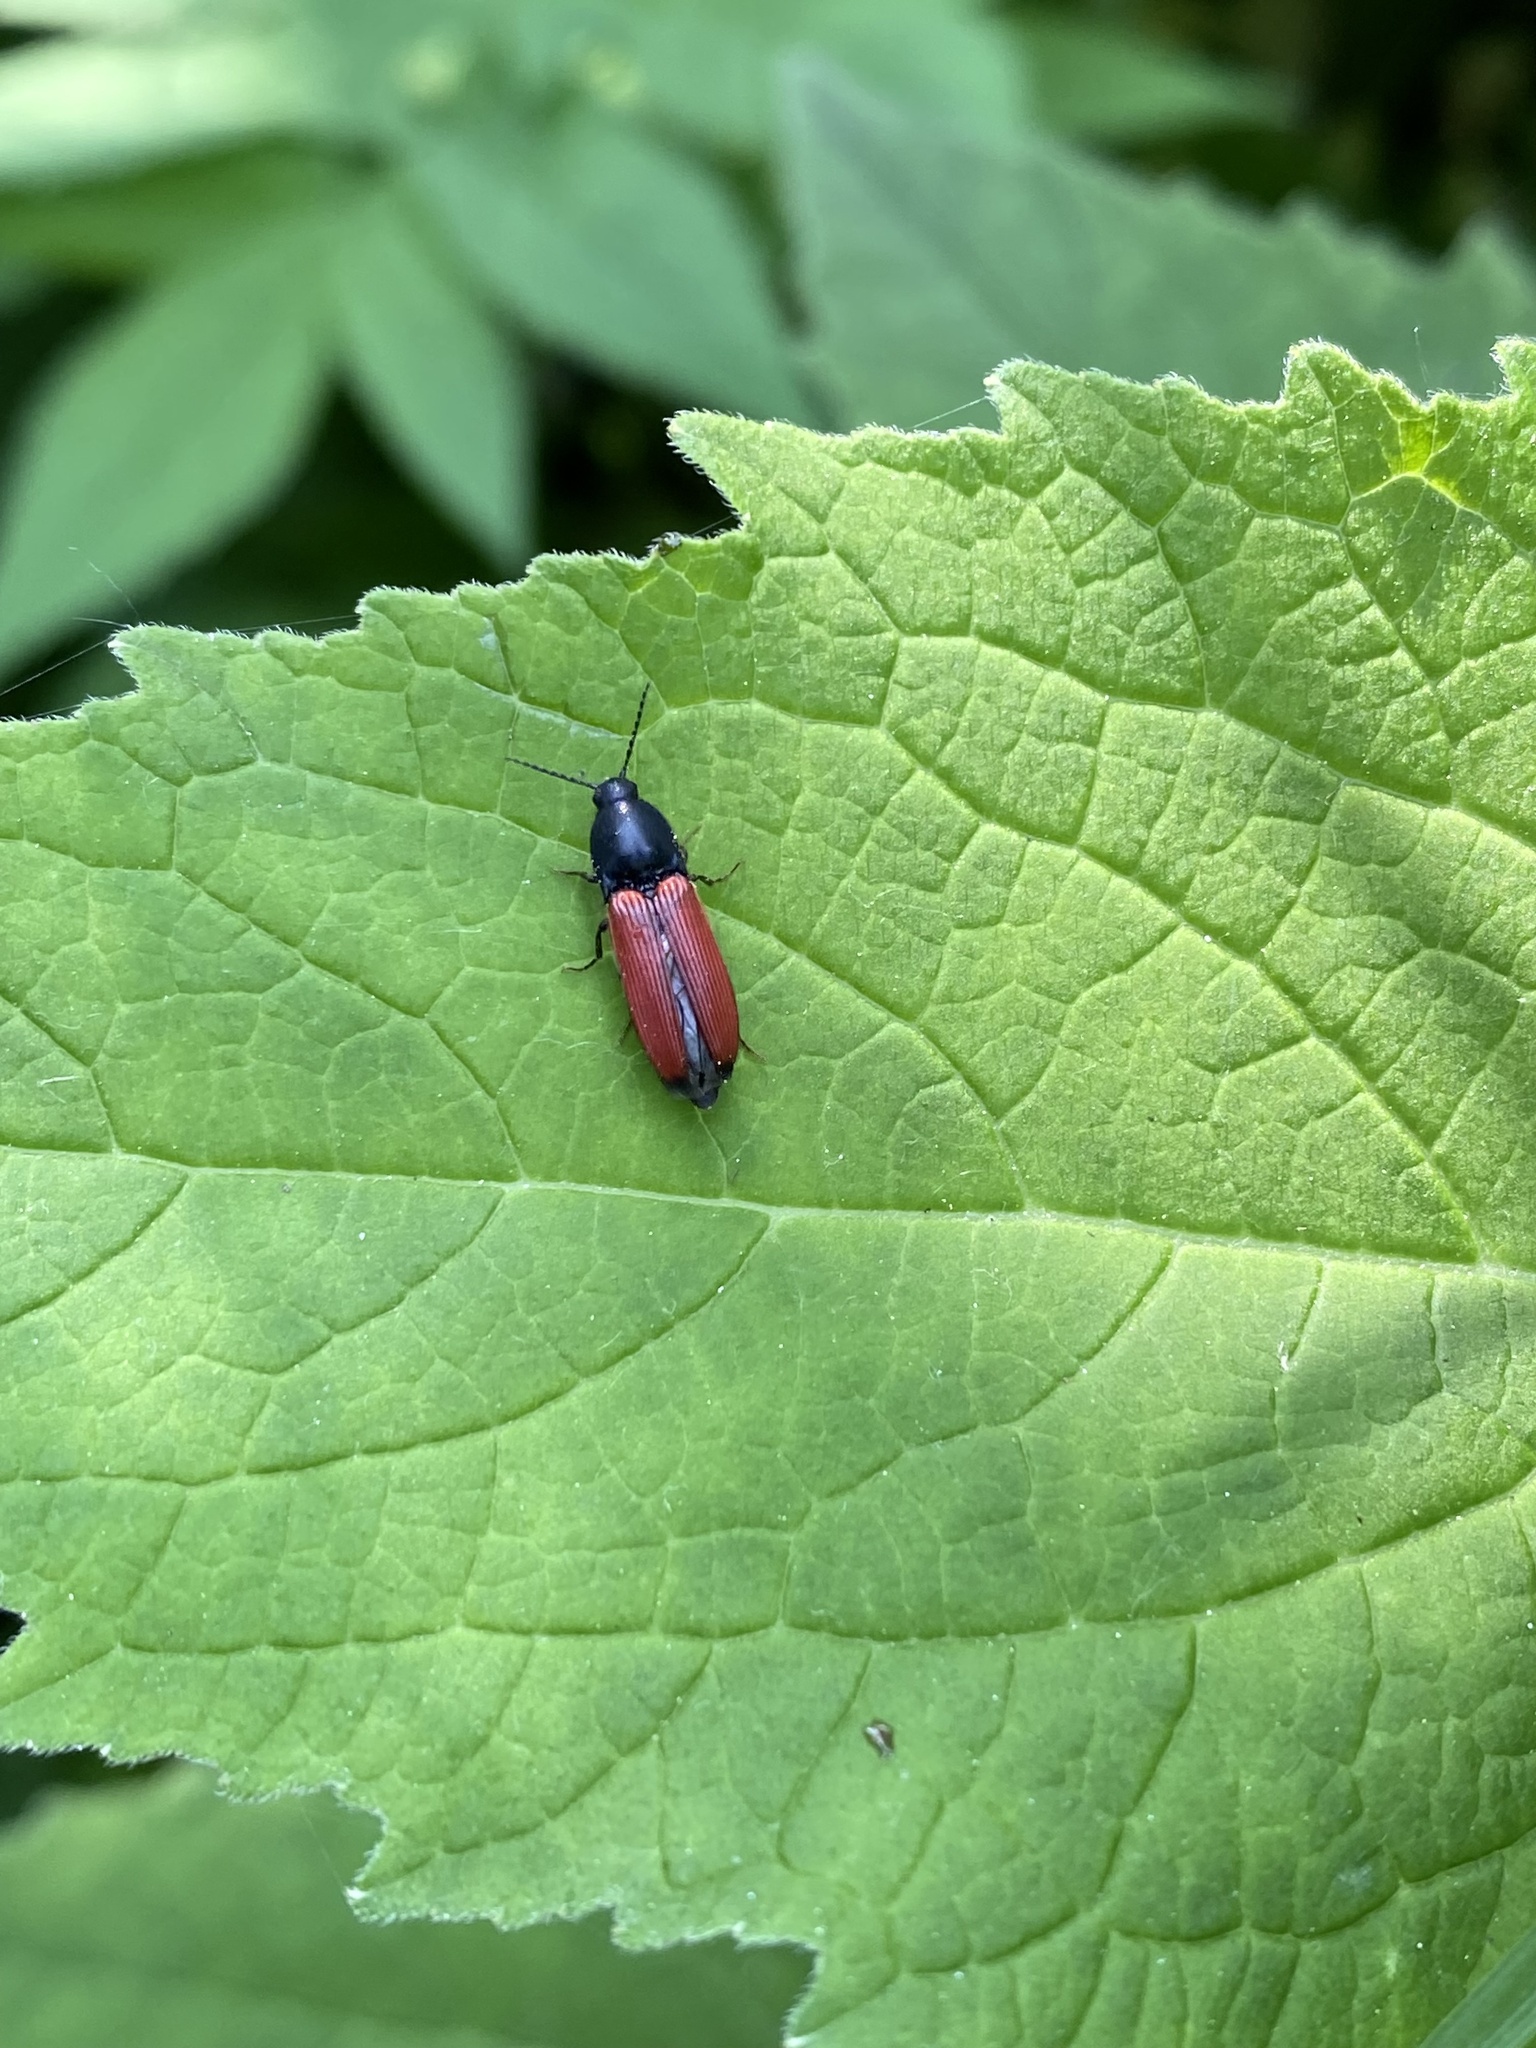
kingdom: Animalia
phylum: Arthropoda
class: Insecta
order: Coleoptera
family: Elateridae
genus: Ampedus
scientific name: Ampedus sanguineus
